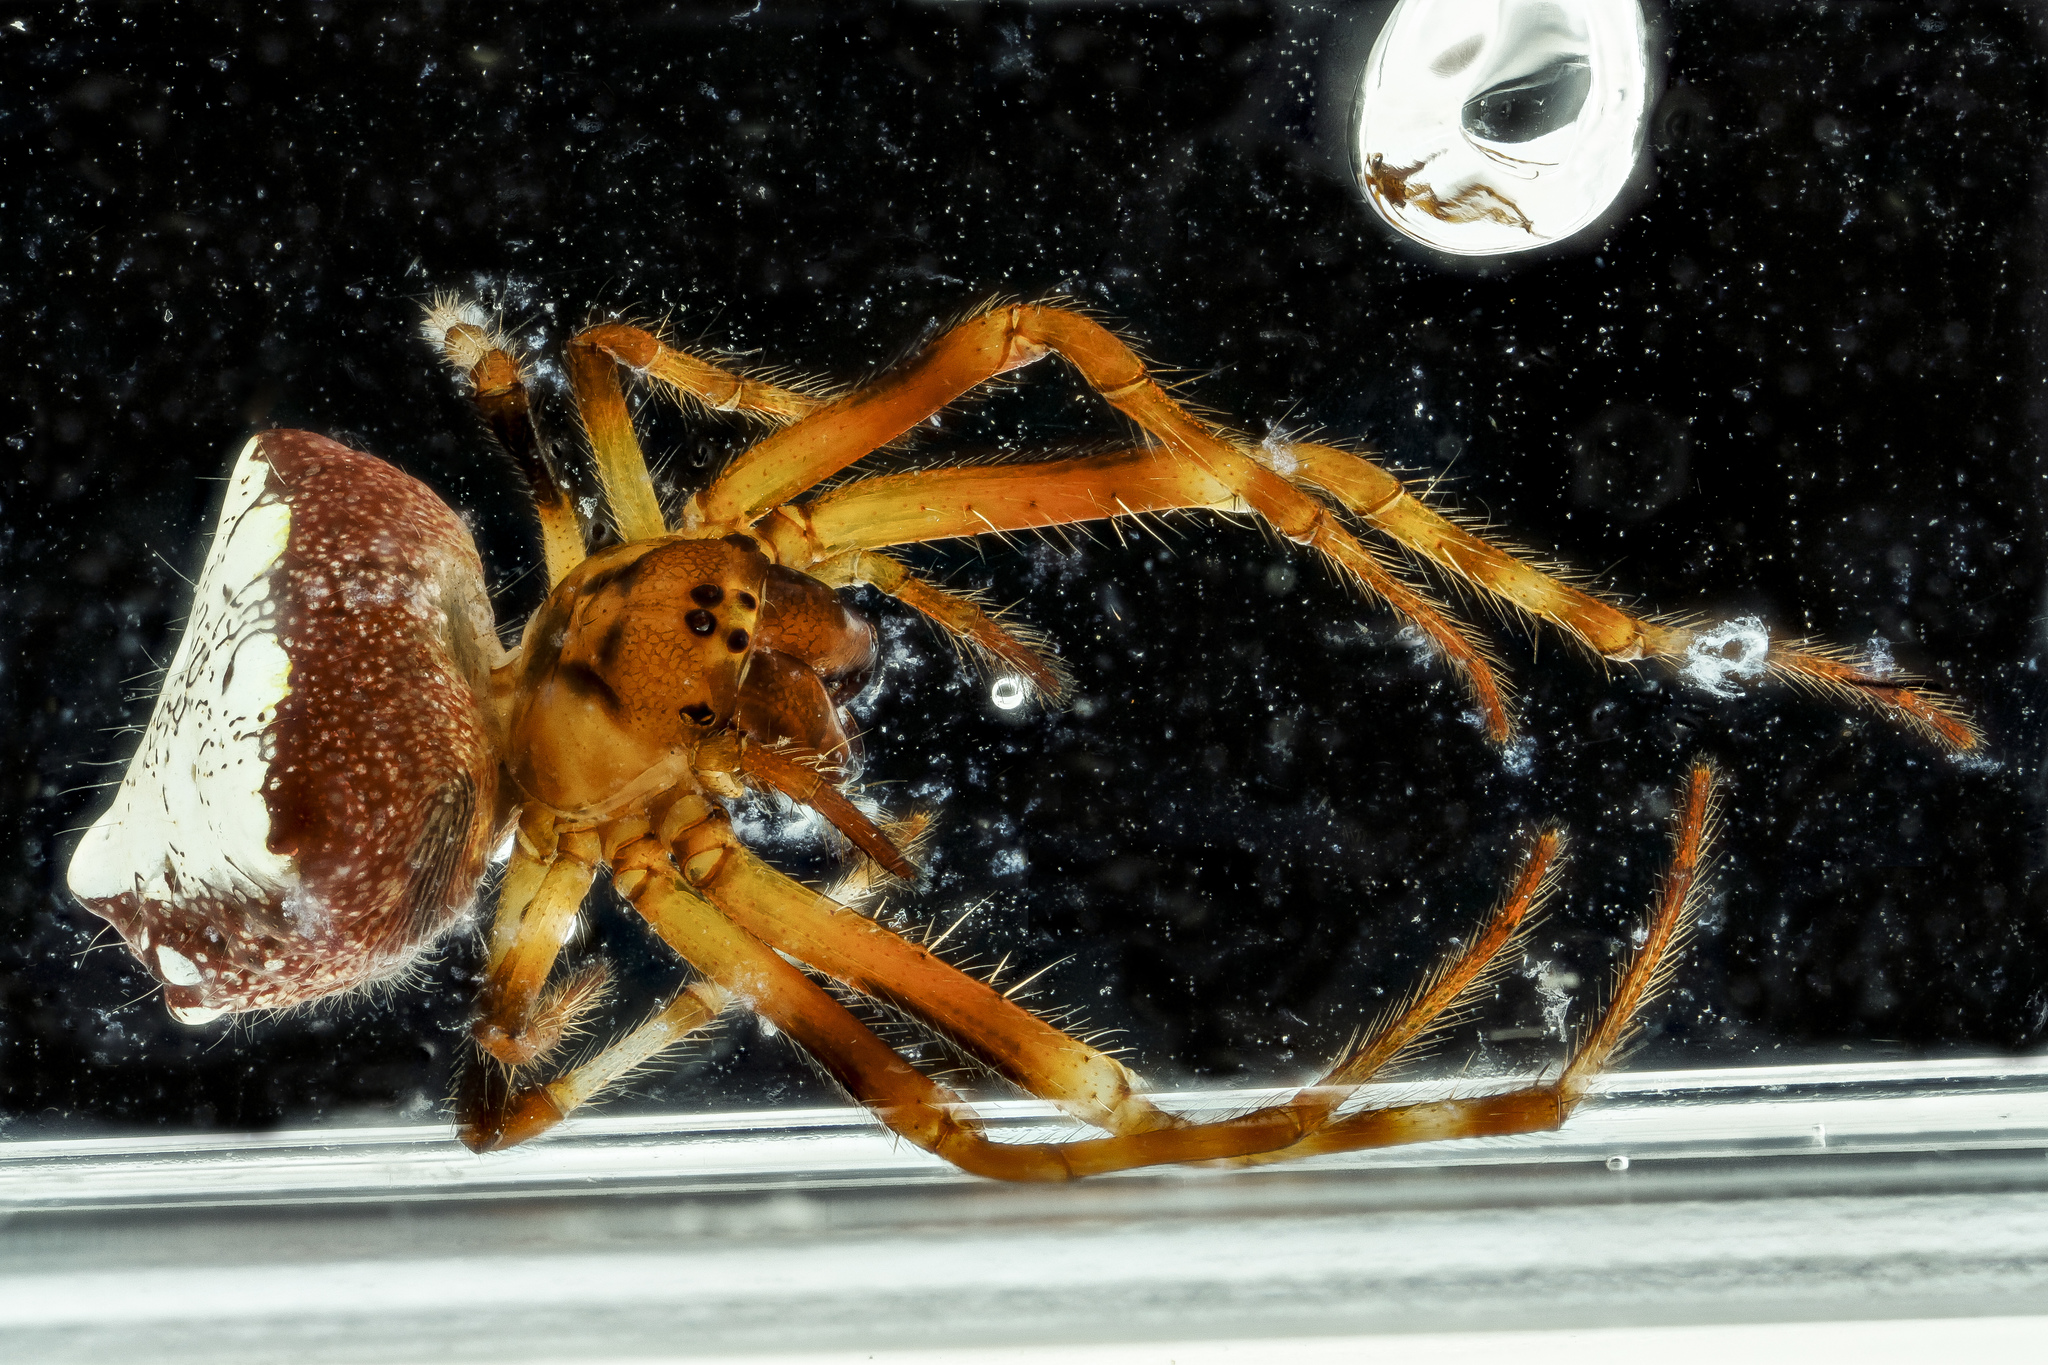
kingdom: Animalia
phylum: Arthropoda
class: Arachnida
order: Araneae
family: Araneidae
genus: Verrucosa
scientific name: Verrucosa arenata
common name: Orb weavers
